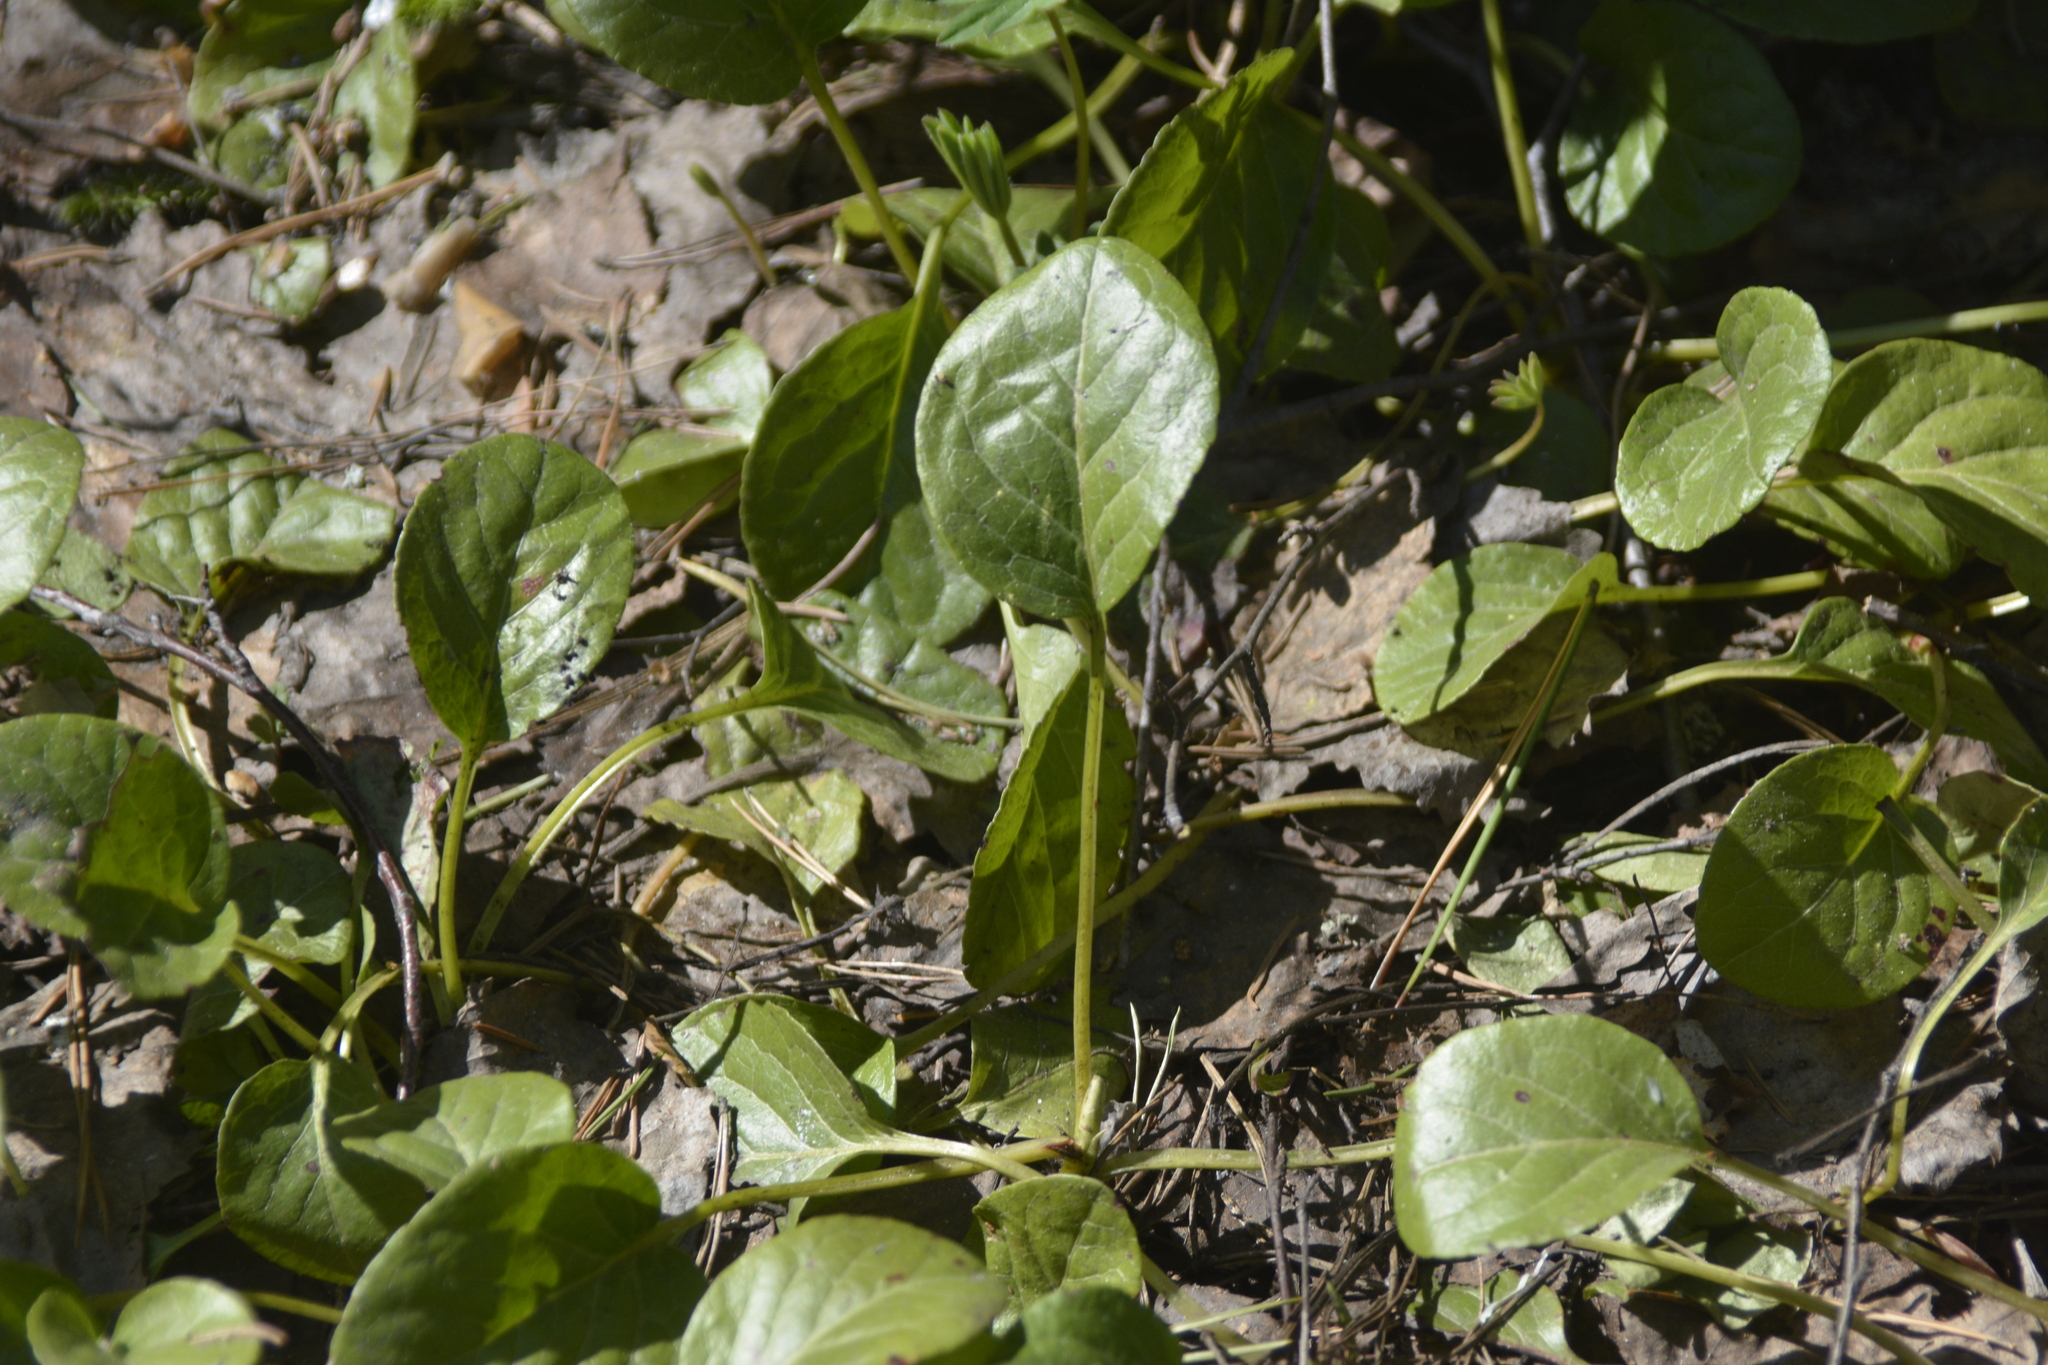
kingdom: Plantae
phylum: Tracheophyta
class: Magnoliopsida
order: Ericales
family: Ericaceae
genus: Pyrola
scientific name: Pyrola rotundifolia
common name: Round-leaved wintergreen
